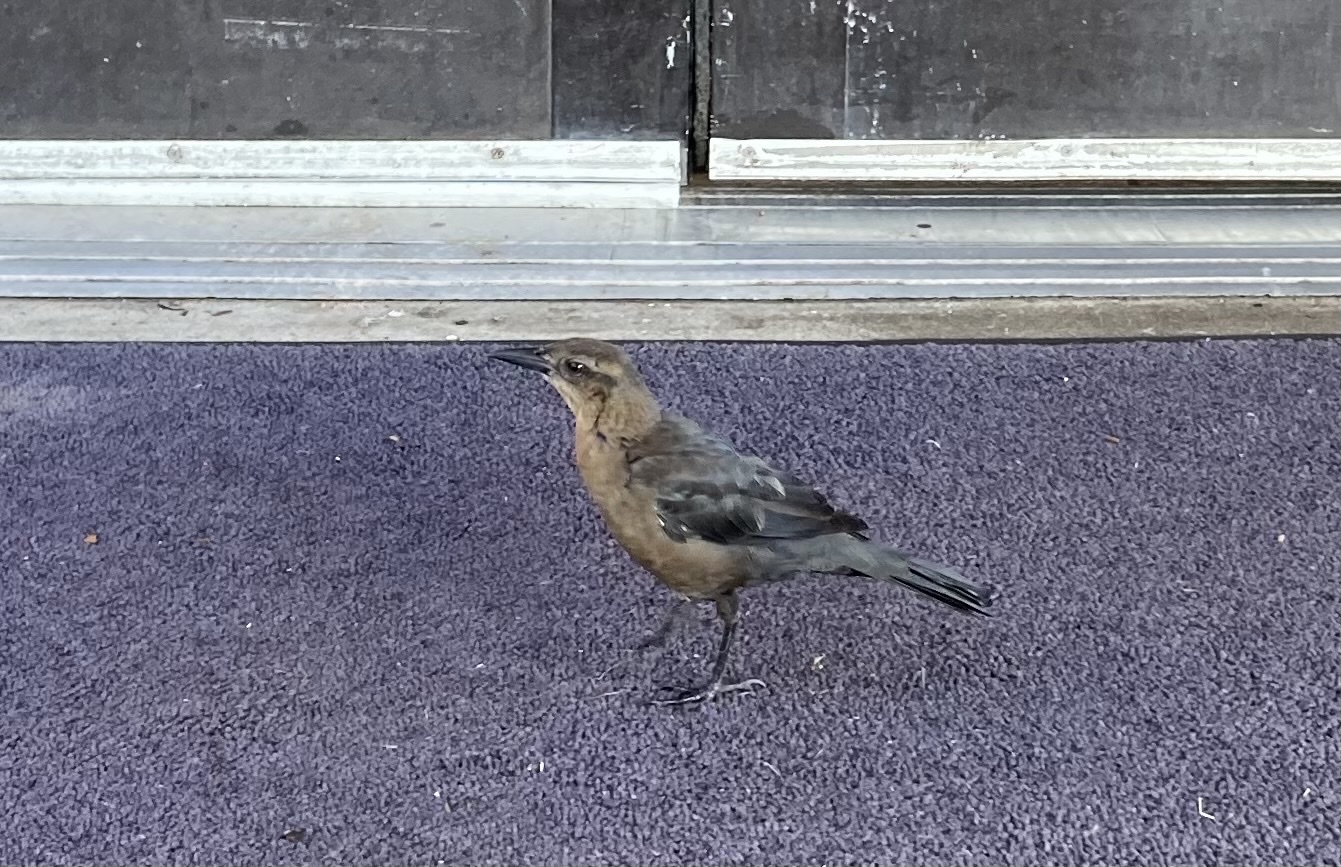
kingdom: Animalia
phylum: Chordata
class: Aves
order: Passeriformes
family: Icteridae
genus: Quiscalus
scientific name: Quiscalus mexicanus
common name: Great-tailed grackle
